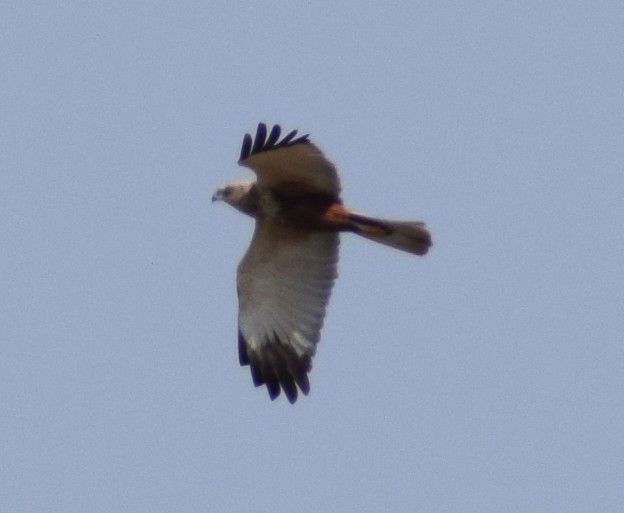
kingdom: Animalia
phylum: Chordata
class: Aves
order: Accipitriformes
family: Accipitridae
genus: Circus
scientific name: Circus aeruginosus
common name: Western marsh harrier
